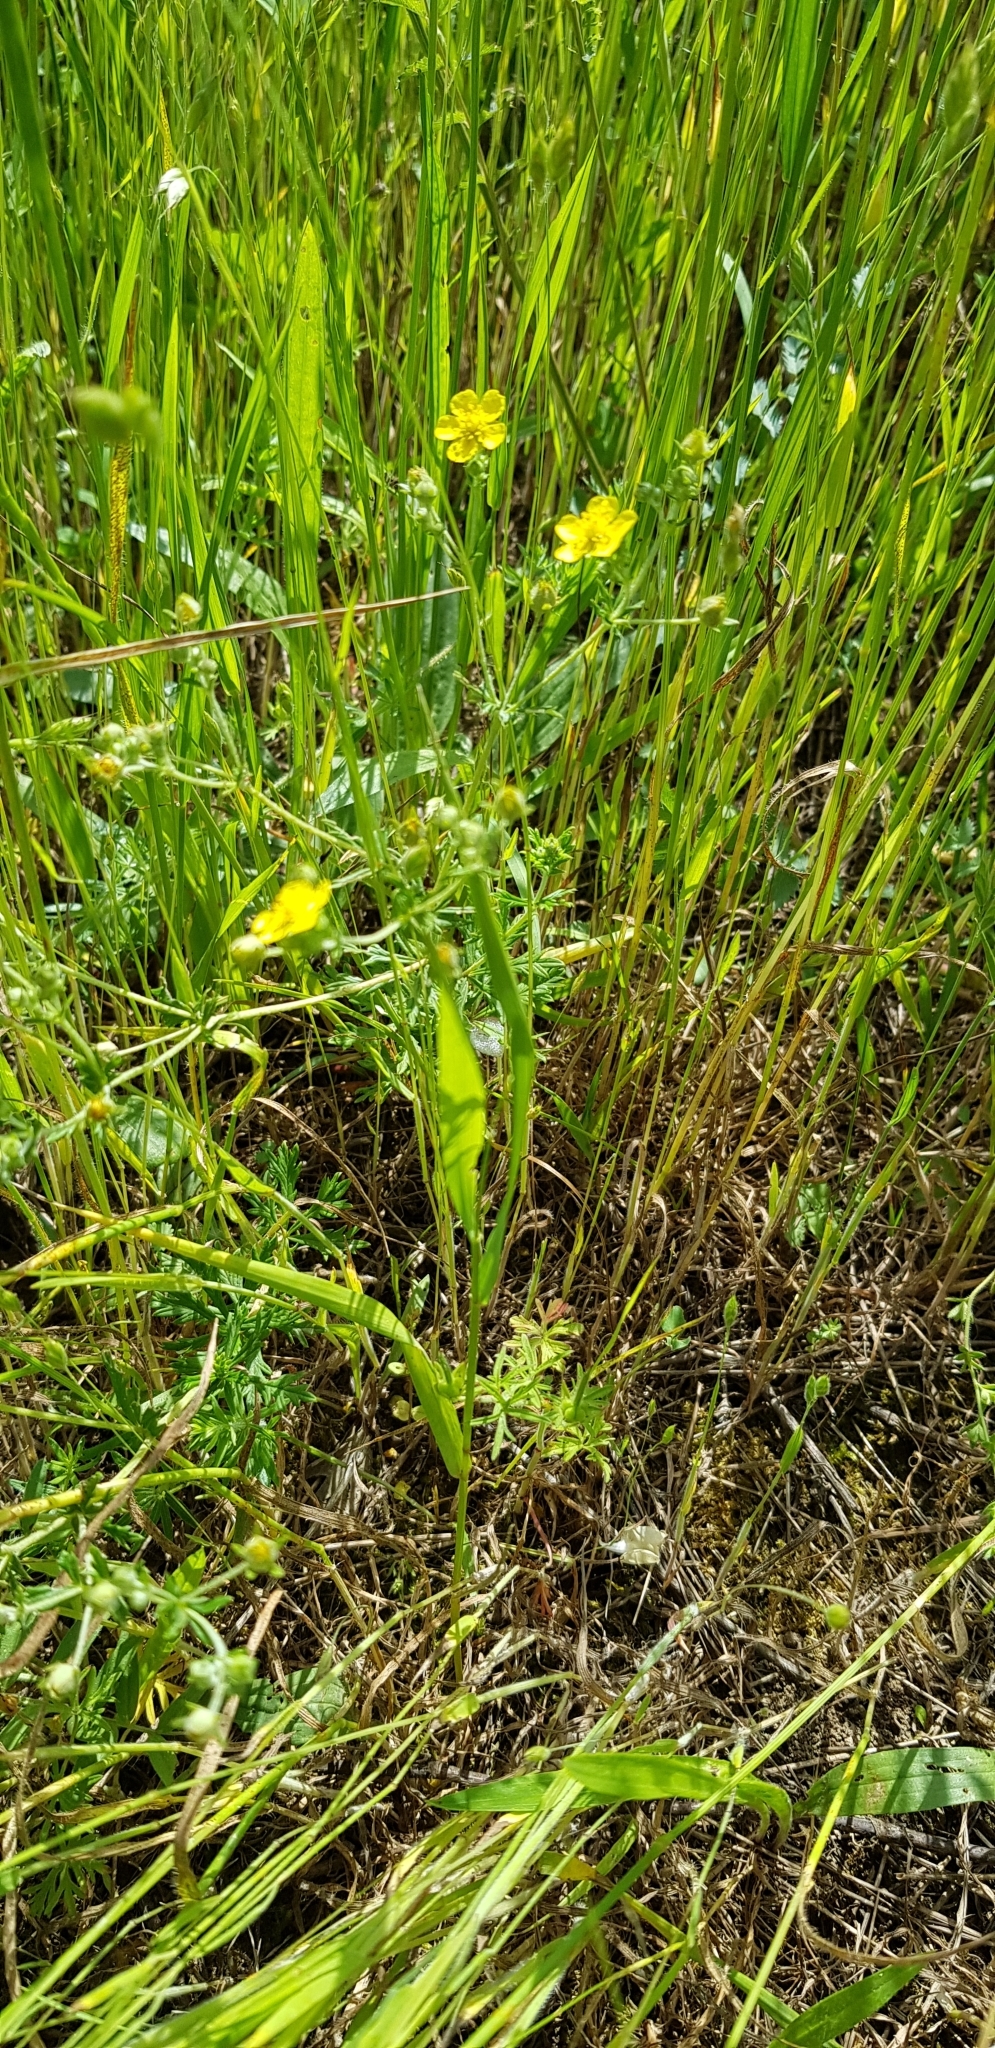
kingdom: Plantae
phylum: Tracheophyta
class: Magnoliopsida
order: Rosales
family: Rosaceae
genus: Potentilla
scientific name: Potentilla argentea
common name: Hoary cinquefoil
